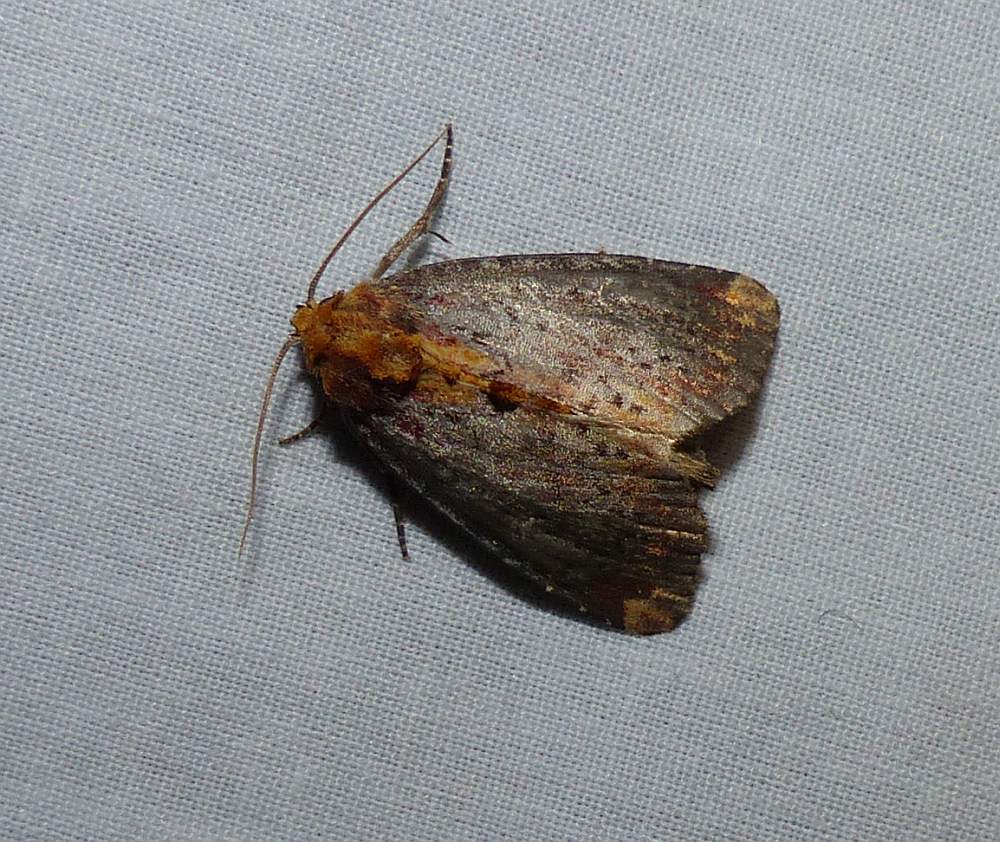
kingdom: Animalia
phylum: Arthropoda
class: Insecta
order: Lepidoptera
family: Noctuidae
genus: Achatodes
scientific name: Achatodes zeae
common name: Elder shoot borer
